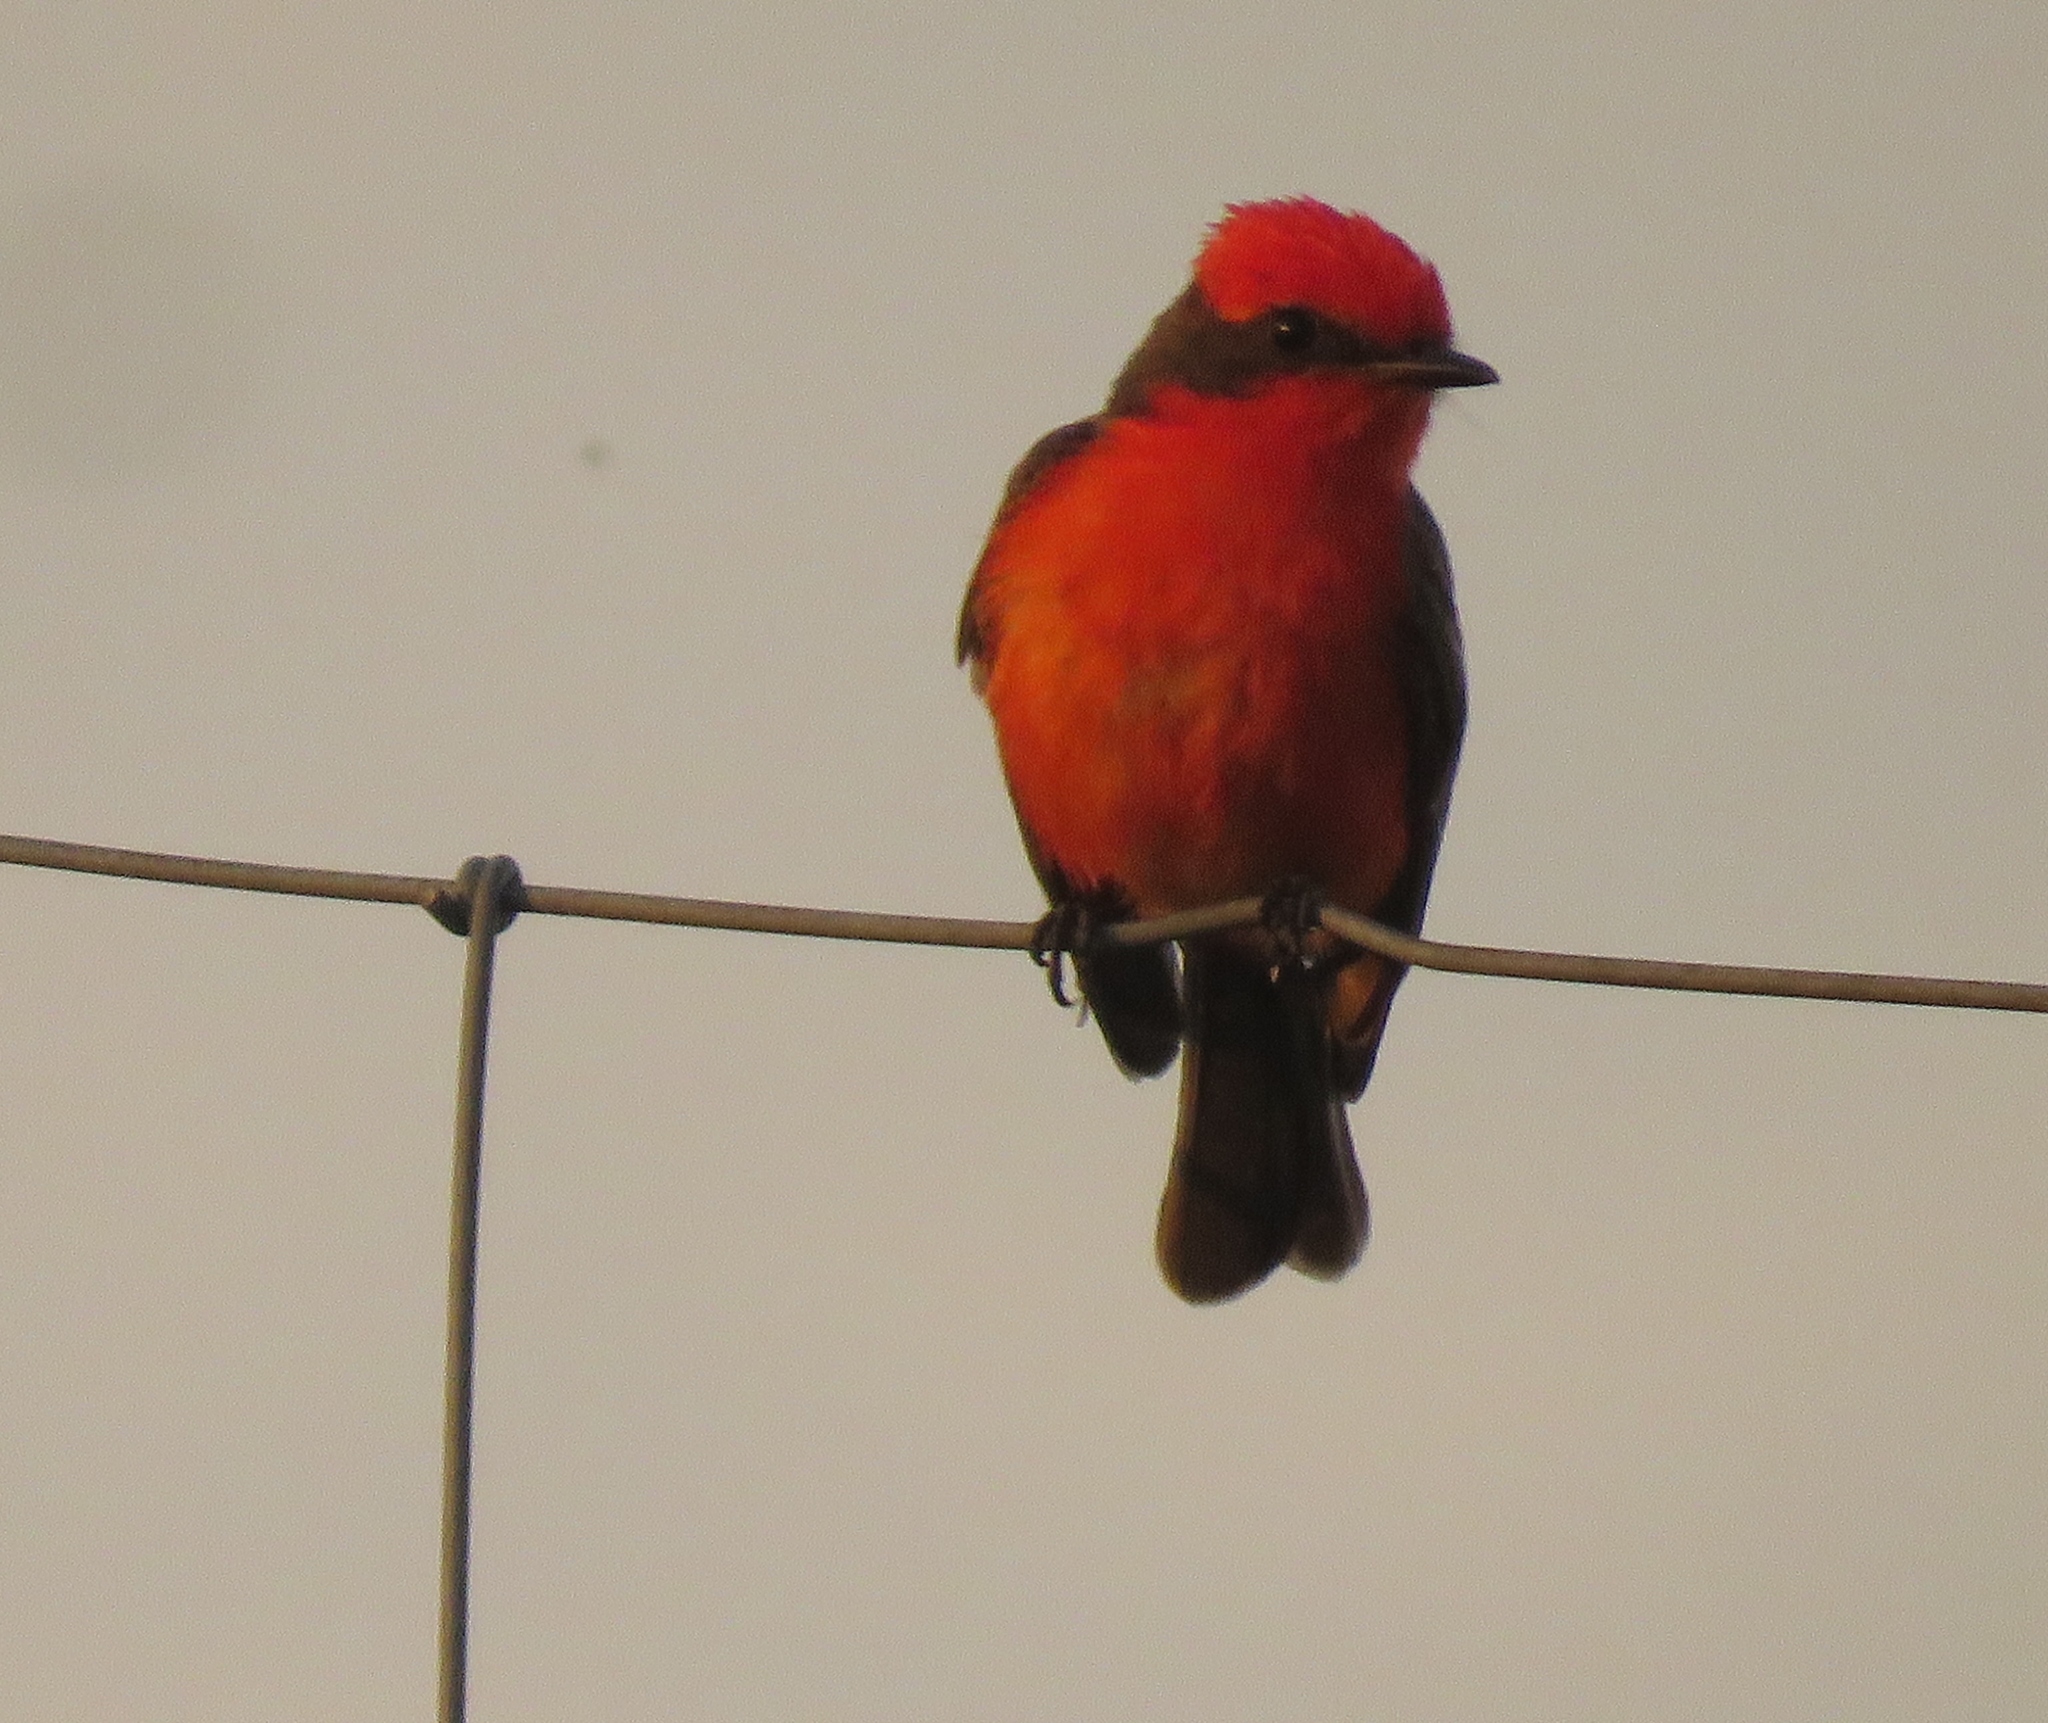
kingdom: Animalia
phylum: Chordata
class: Aves
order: Passeriformes
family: Tyrannidae
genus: Pyrocephalus
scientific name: Pyrocephalus rubinus
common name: Vermilion flycatcher
